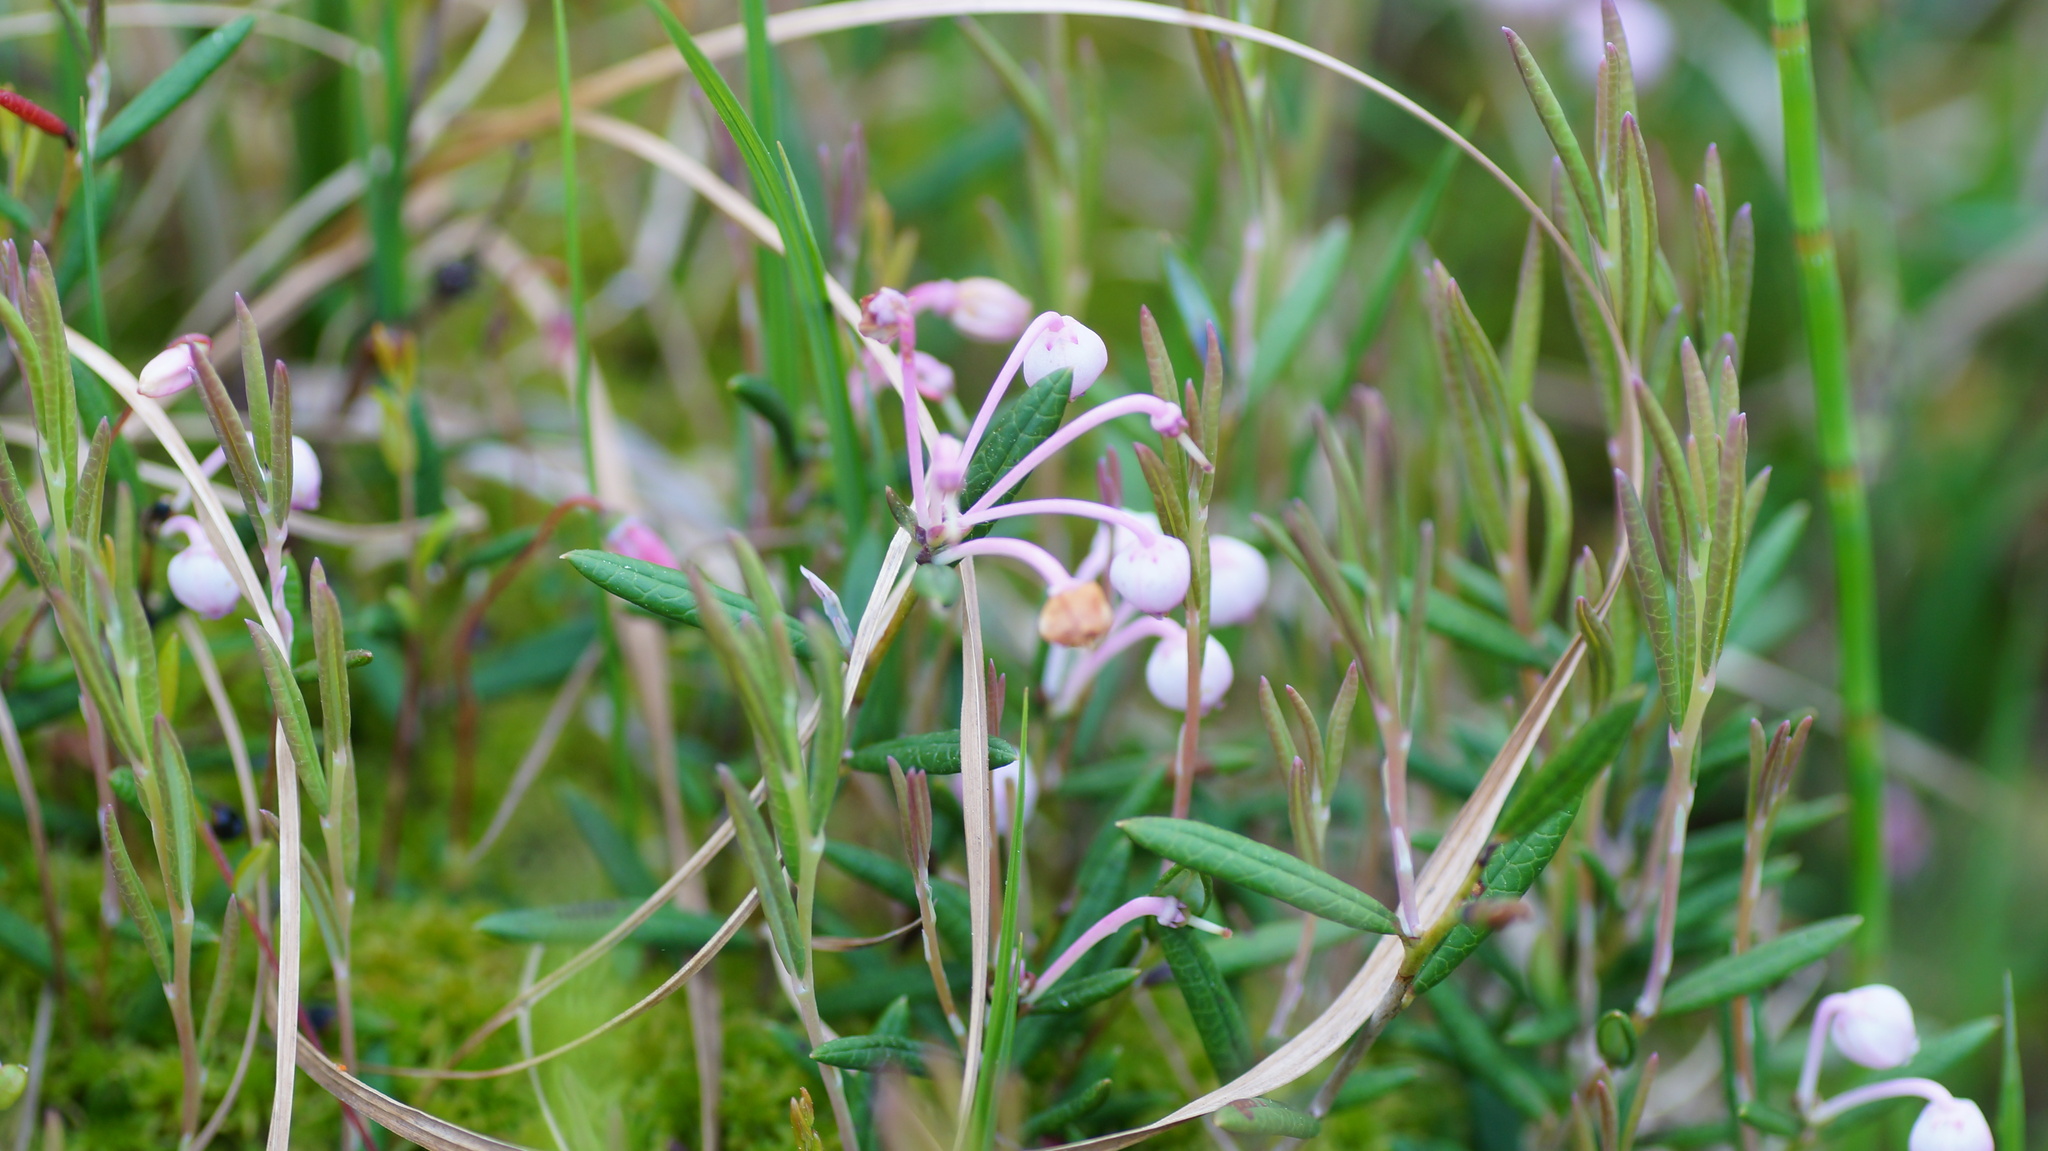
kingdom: Plantae
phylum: Tracheophyta
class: Magnoliopsida
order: Ericales
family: Ericaceae
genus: Andromeda
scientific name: Andromeda polifolia
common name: Bog-rosemary
